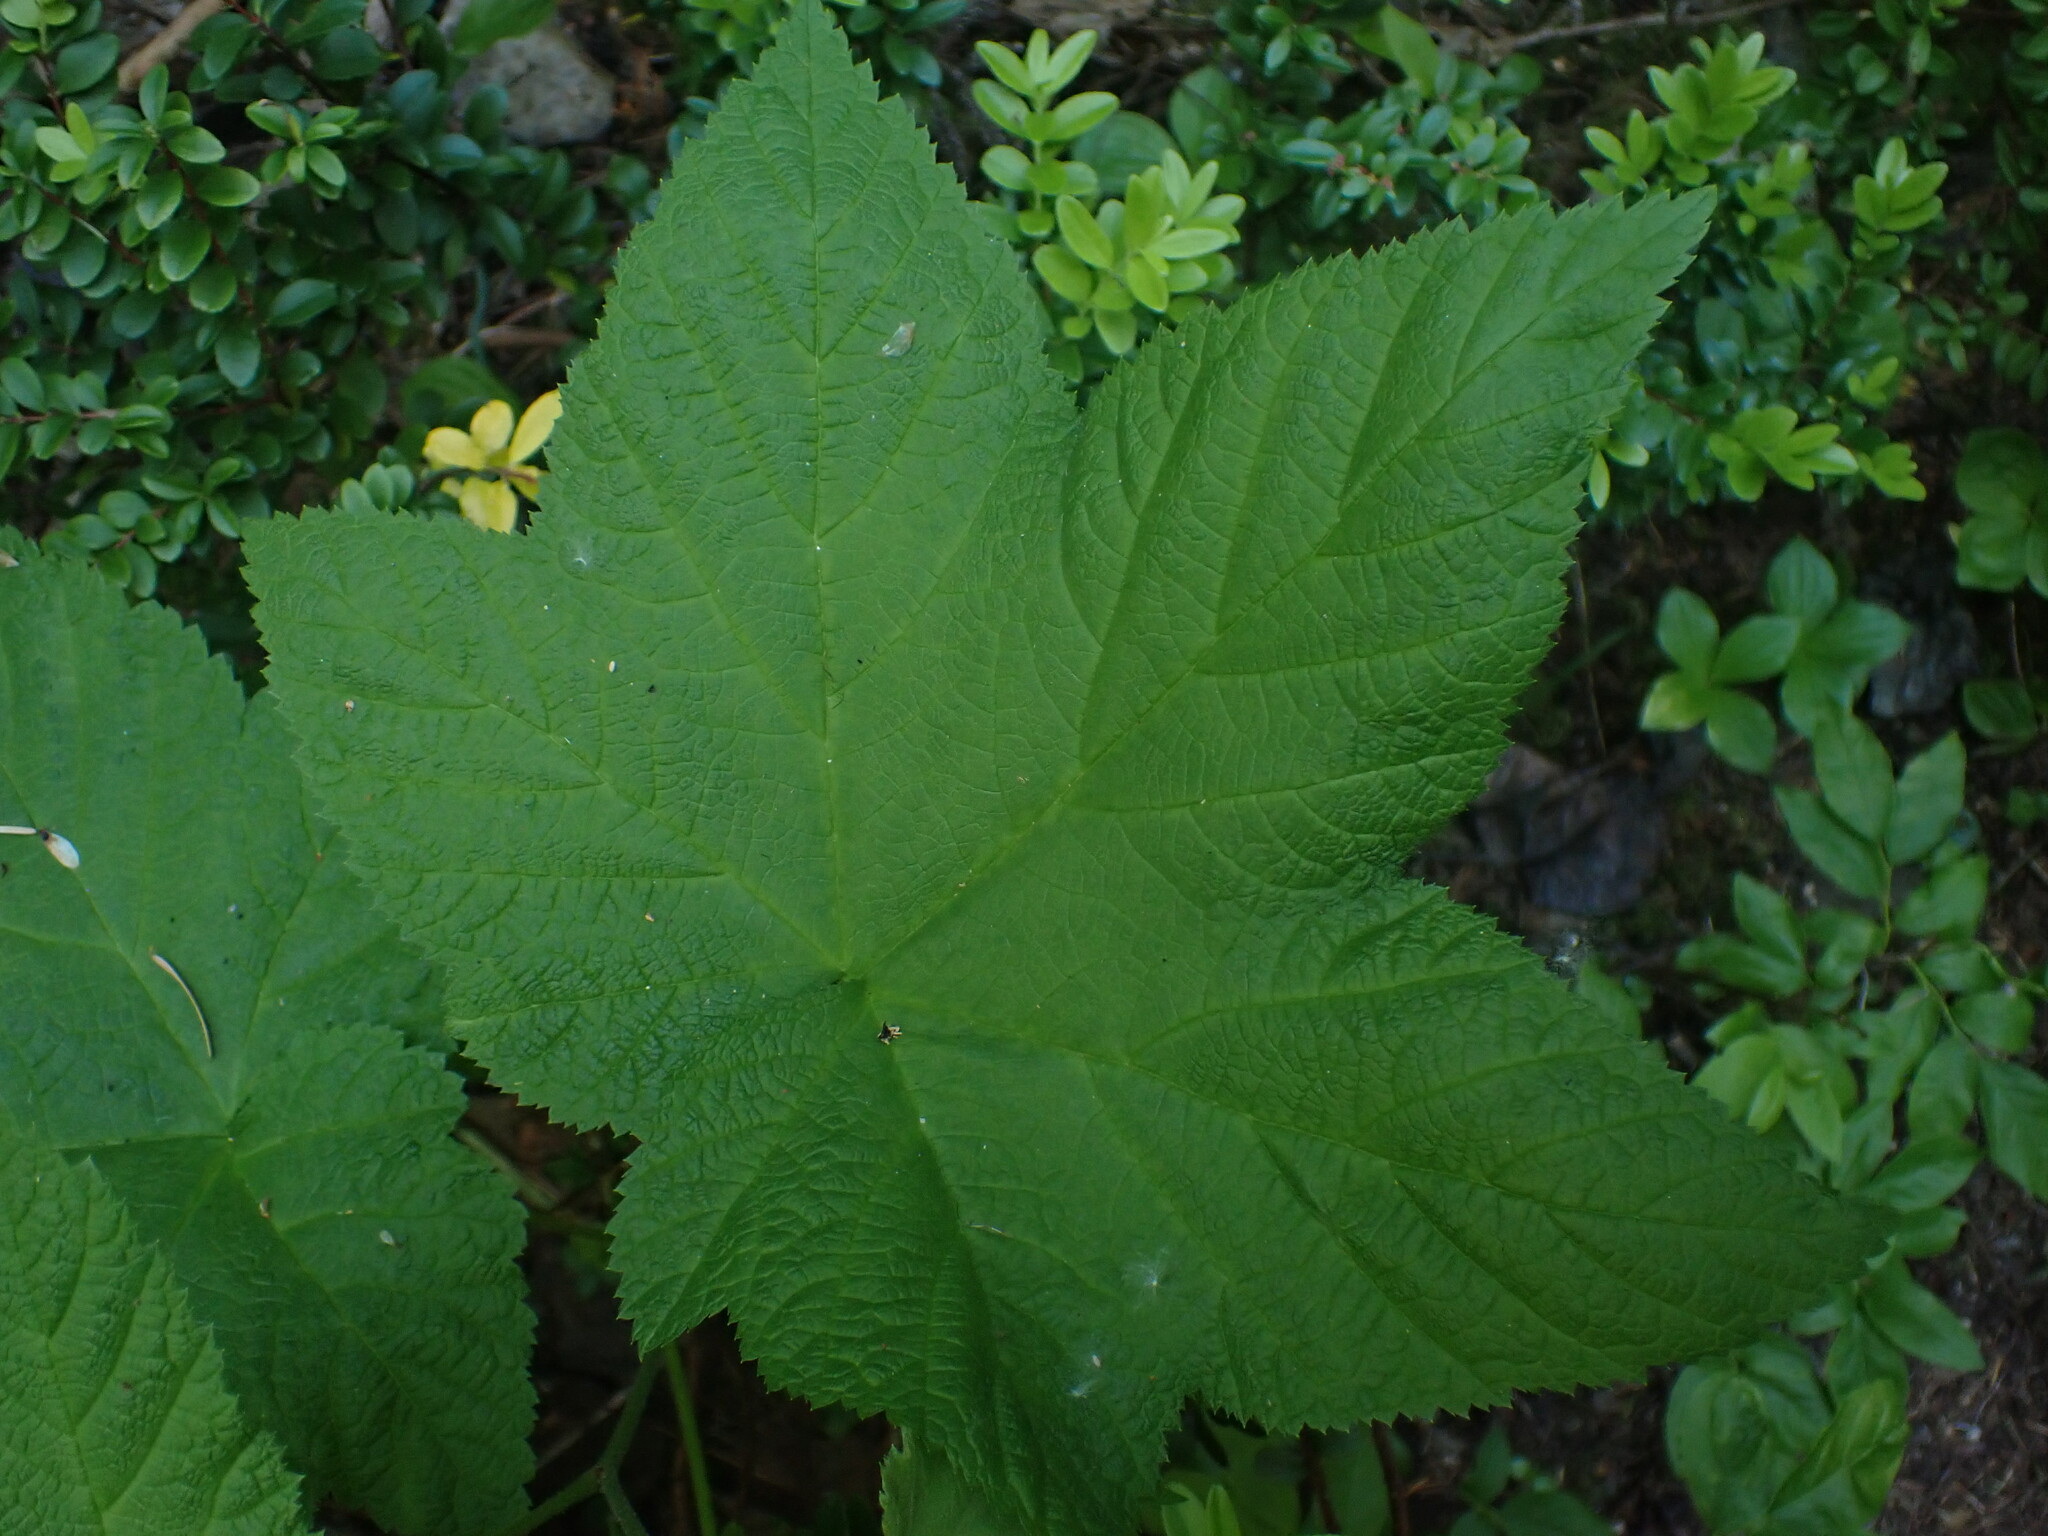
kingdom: Plantae
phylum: Tracheophyta
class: Magnoliopsida
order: Rosales
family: Rosaceae
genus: Rubus
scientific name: Rubus parviflorus
